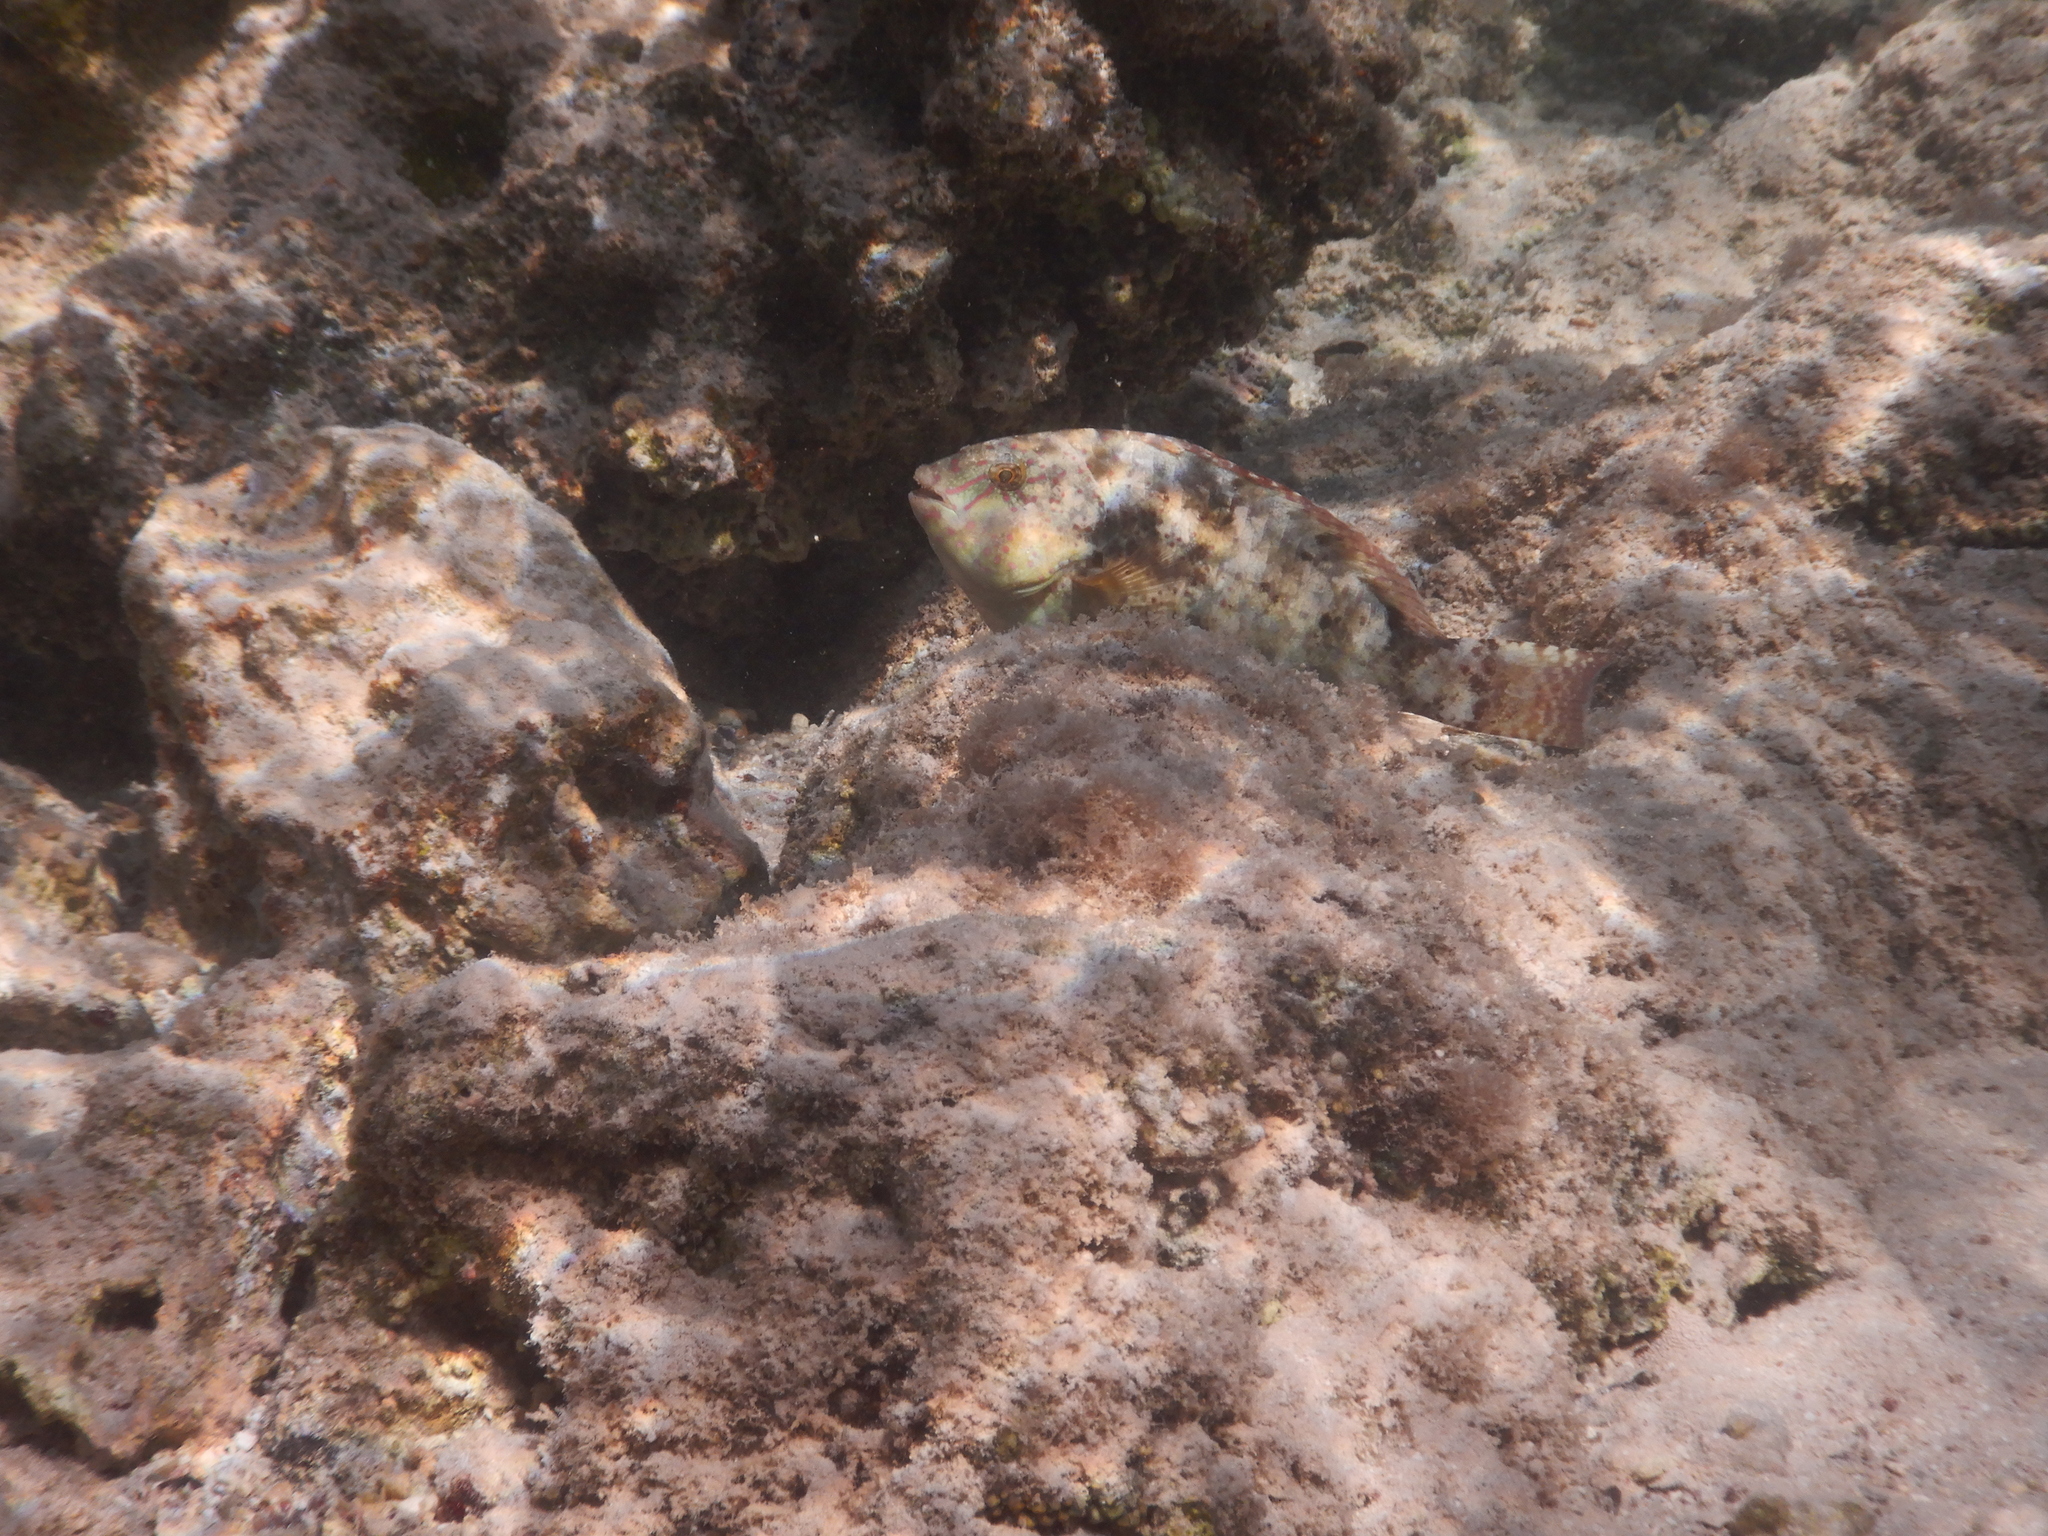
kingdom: Animalia
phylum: Chordata
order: Perciformes
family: Scaridae
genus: Calotomus
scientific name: Calotomus viridescens
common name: Dotted parrotfish
